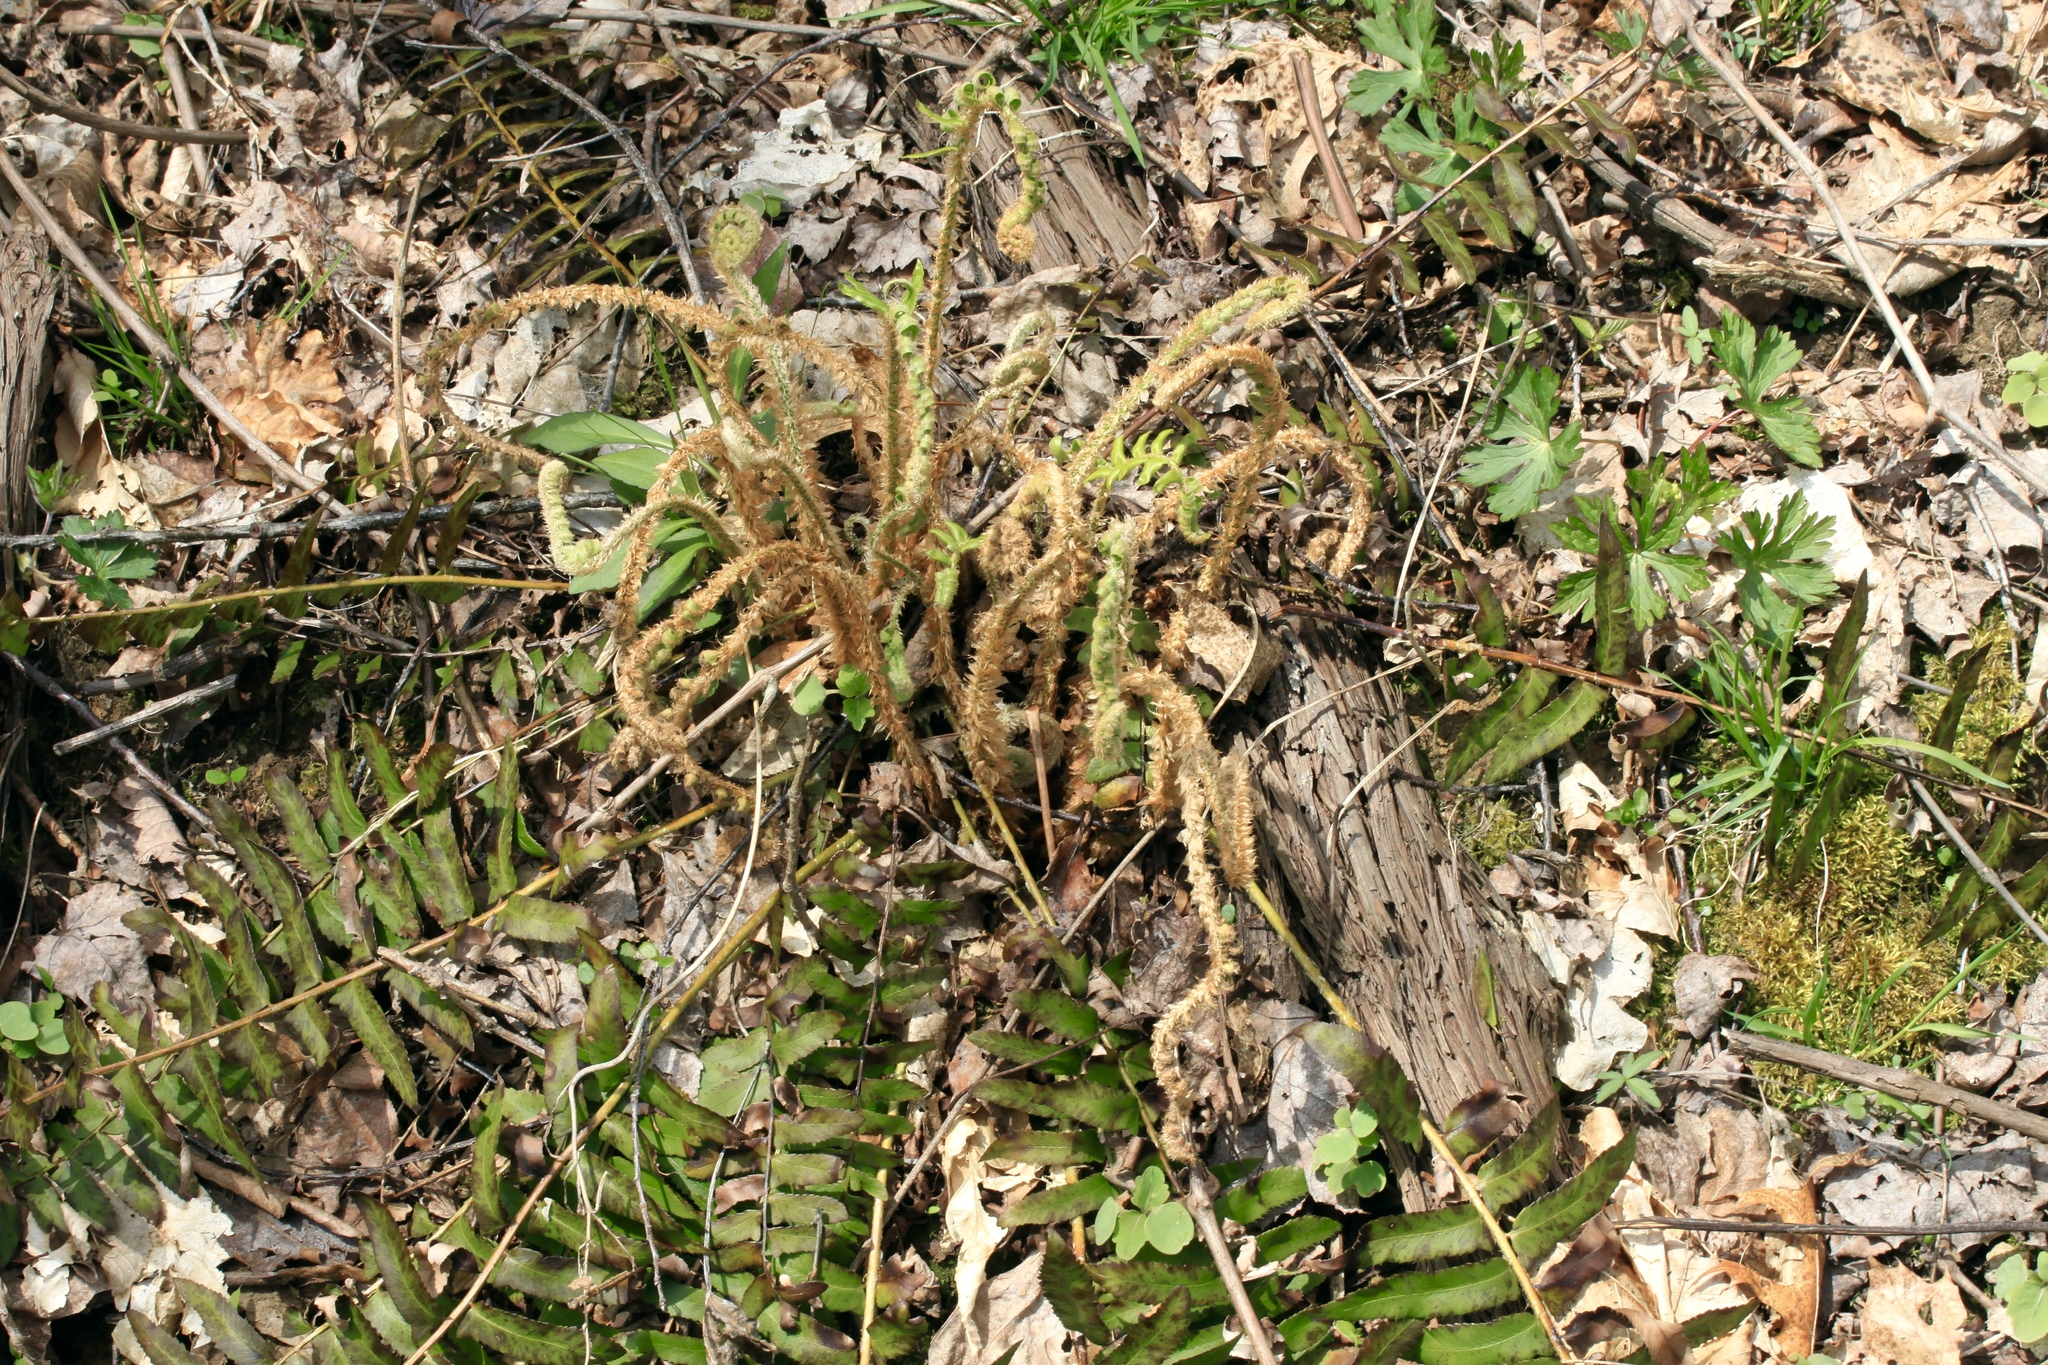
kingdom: Plantae
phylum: Tracheophyta
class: Polypodiopsida
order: Polypodiales
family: Dryopteridaceae
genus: Polystichum
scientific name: Polystichum acrostichoides
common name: Christmas fern
